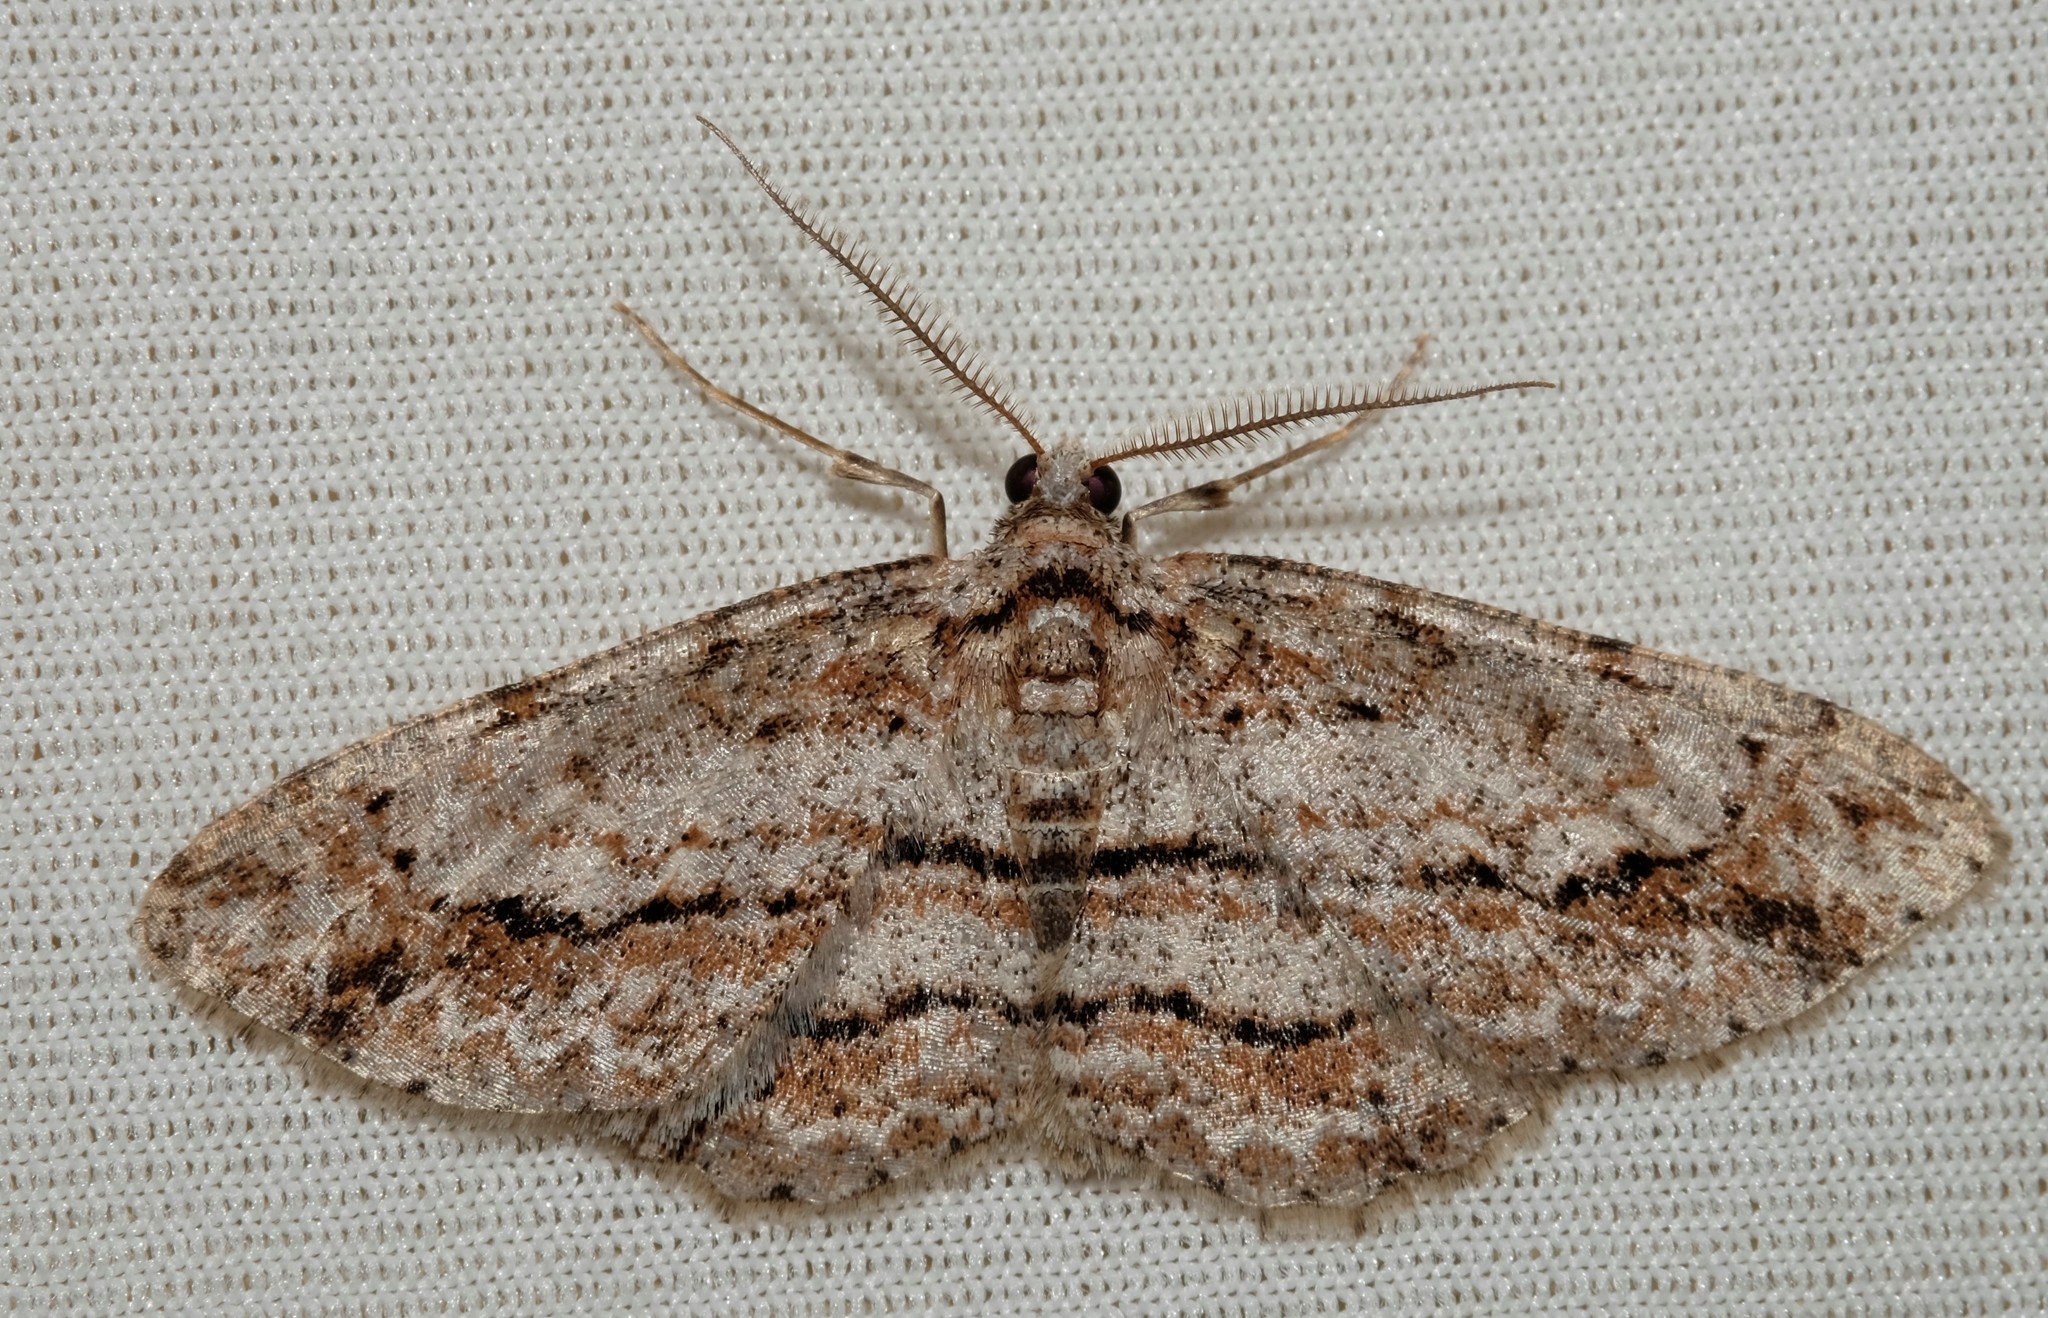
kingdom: Animalia
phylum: Arthropoda
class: Insecta
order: Lepidoptera
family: Geometridae
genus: Didymoctenia
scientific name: Didymoctenia exsuperata
